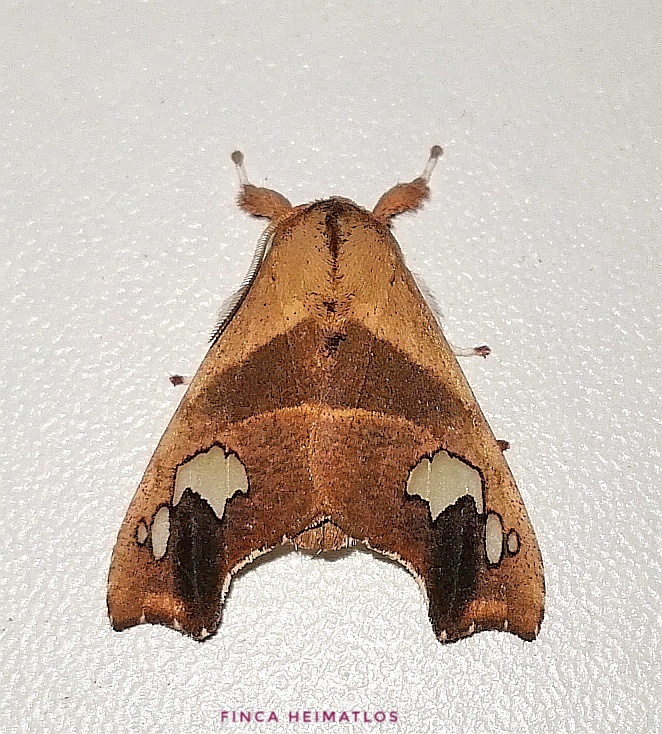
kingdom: Animalia
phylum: Arthropoda
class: Insecta
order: Lepidoptera
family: Erebidae
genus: Zatrephes
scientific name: Zatrephes haxairei
